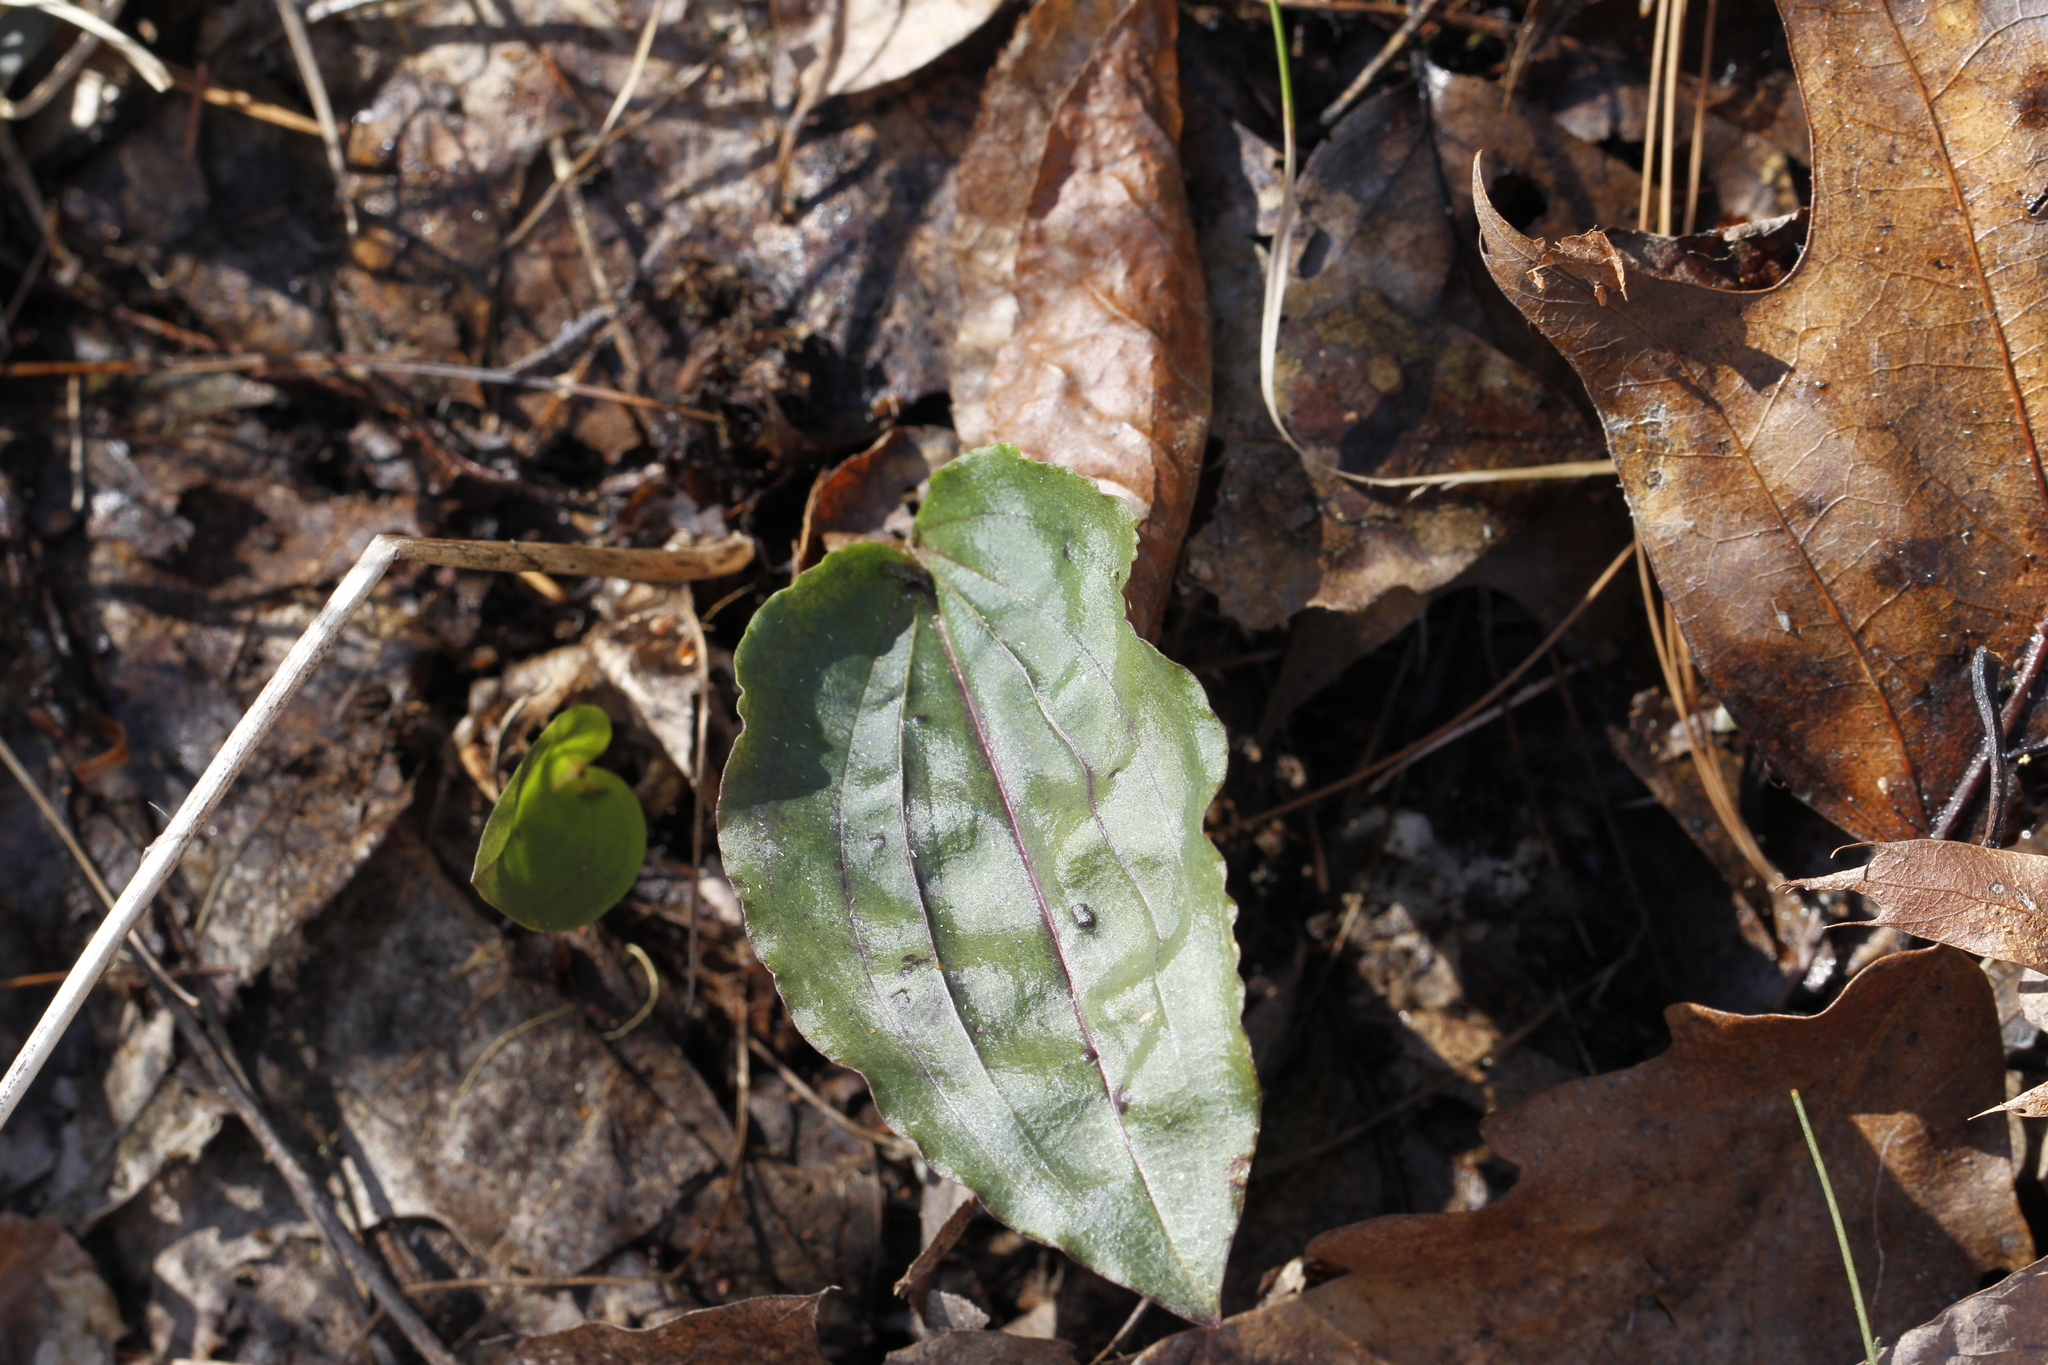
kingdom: Plantae
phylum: Tracheophyta
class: Liliopsida
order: Asparagales
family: Orchidaceae
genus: Tipularia
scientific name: Tipularia discolor
